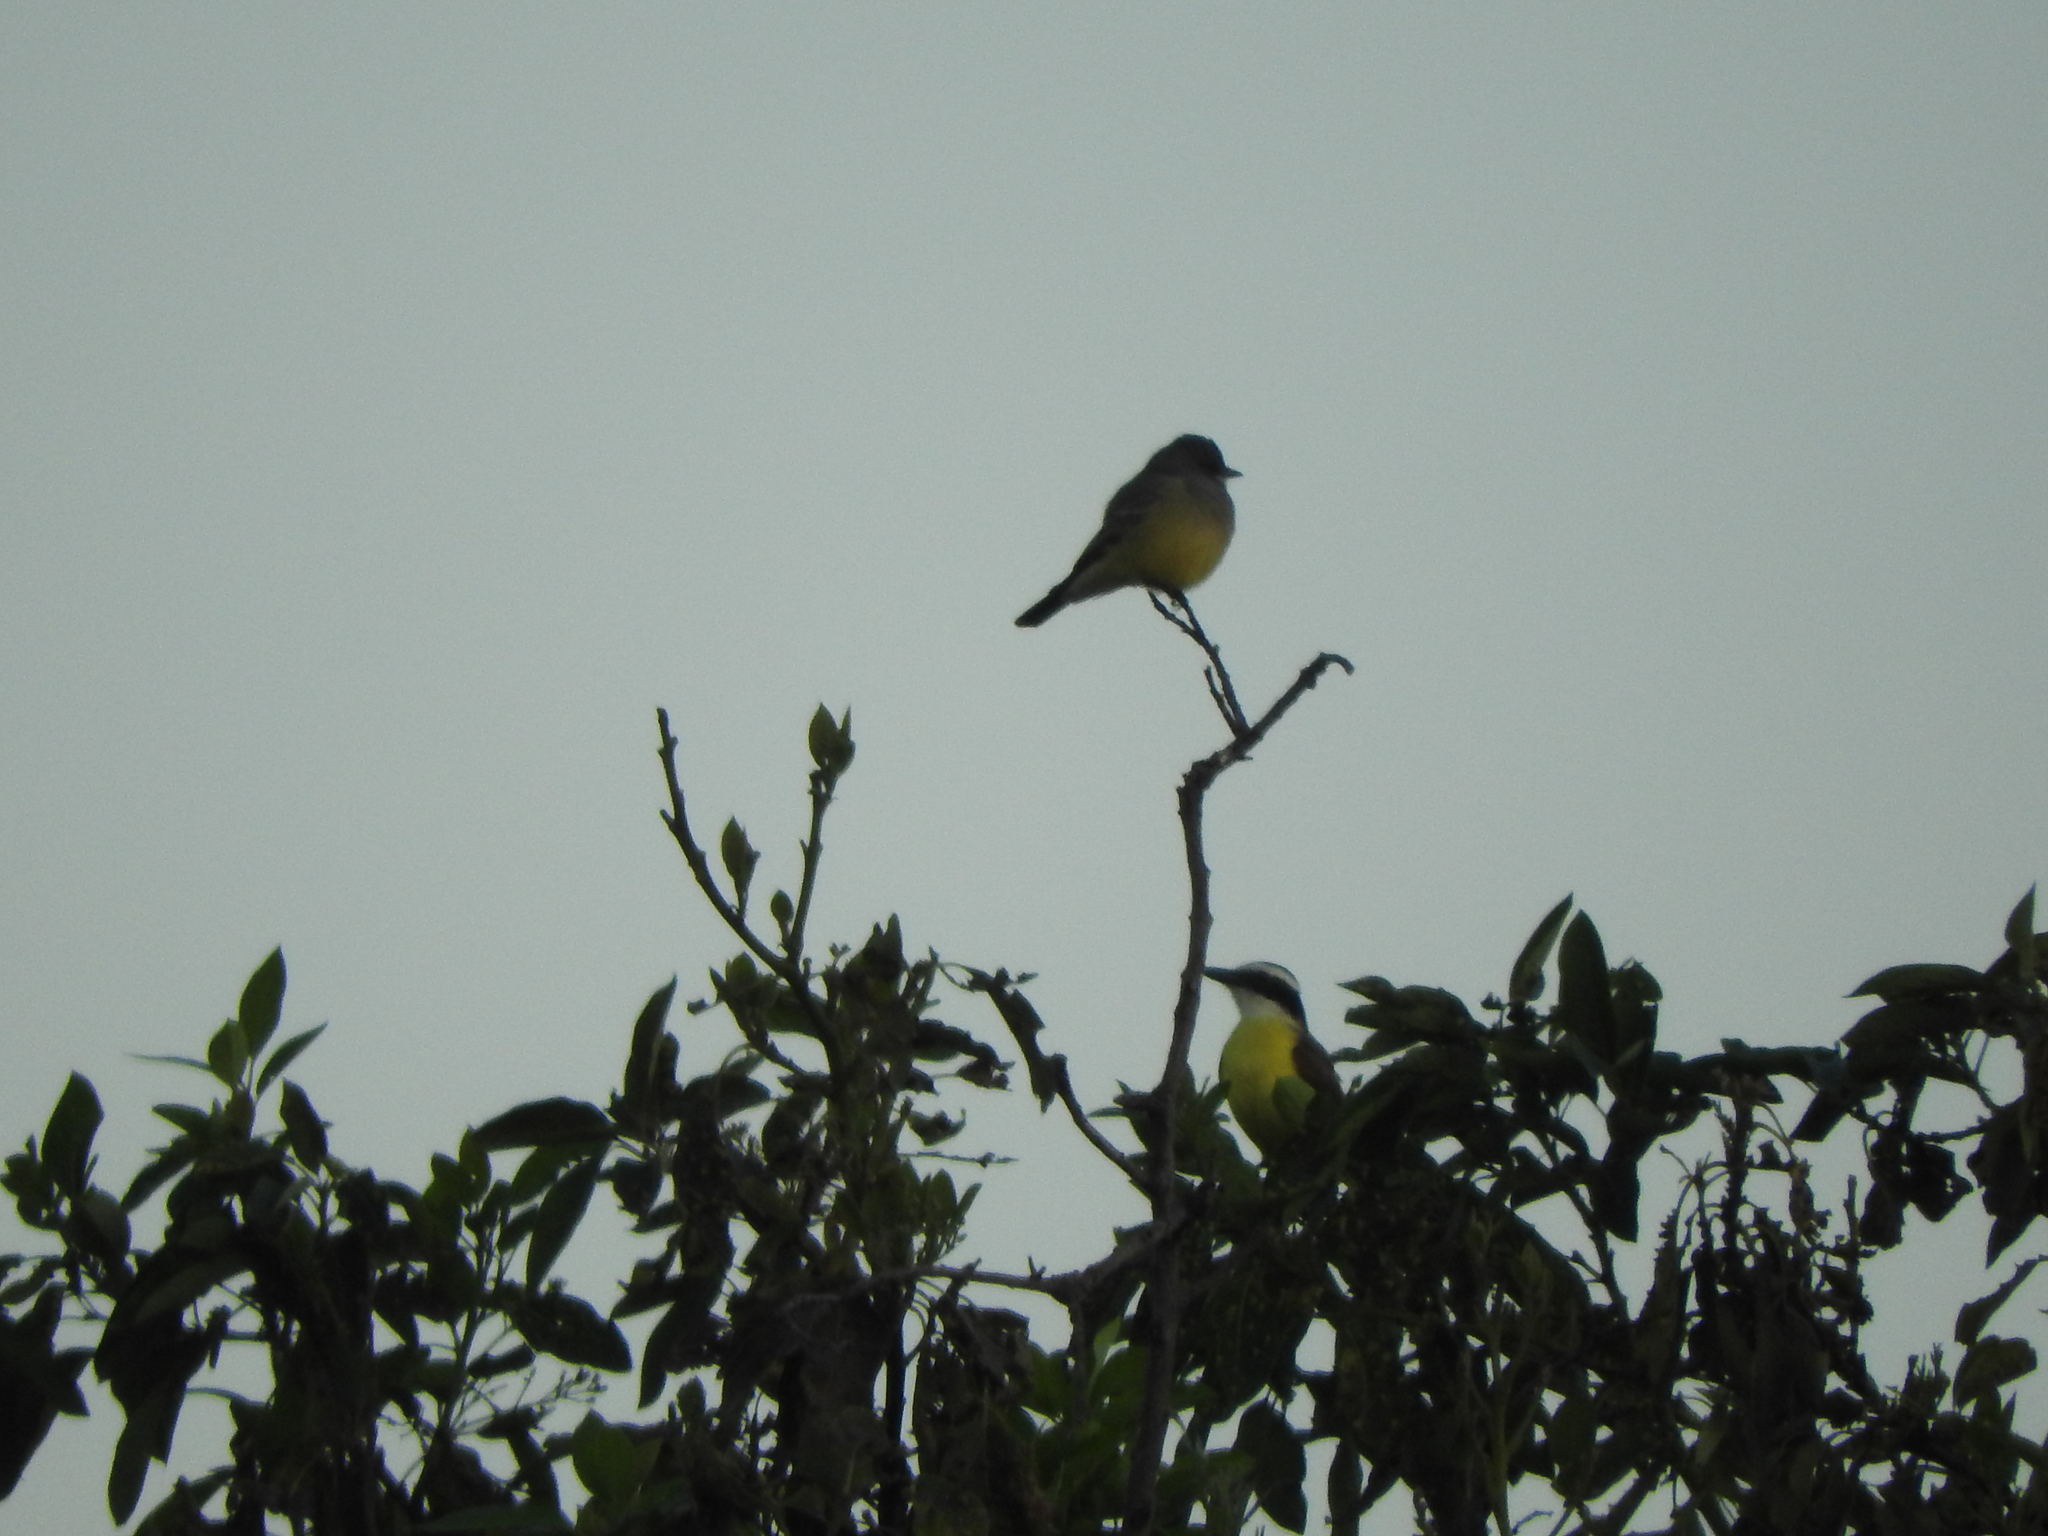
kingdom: Animalia
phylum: Chordata
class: Aves
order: Passeriformes
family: Tyrannidae
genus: Tyrannus
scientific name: Tyrannus vociferans
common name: Cassin's kingbird
